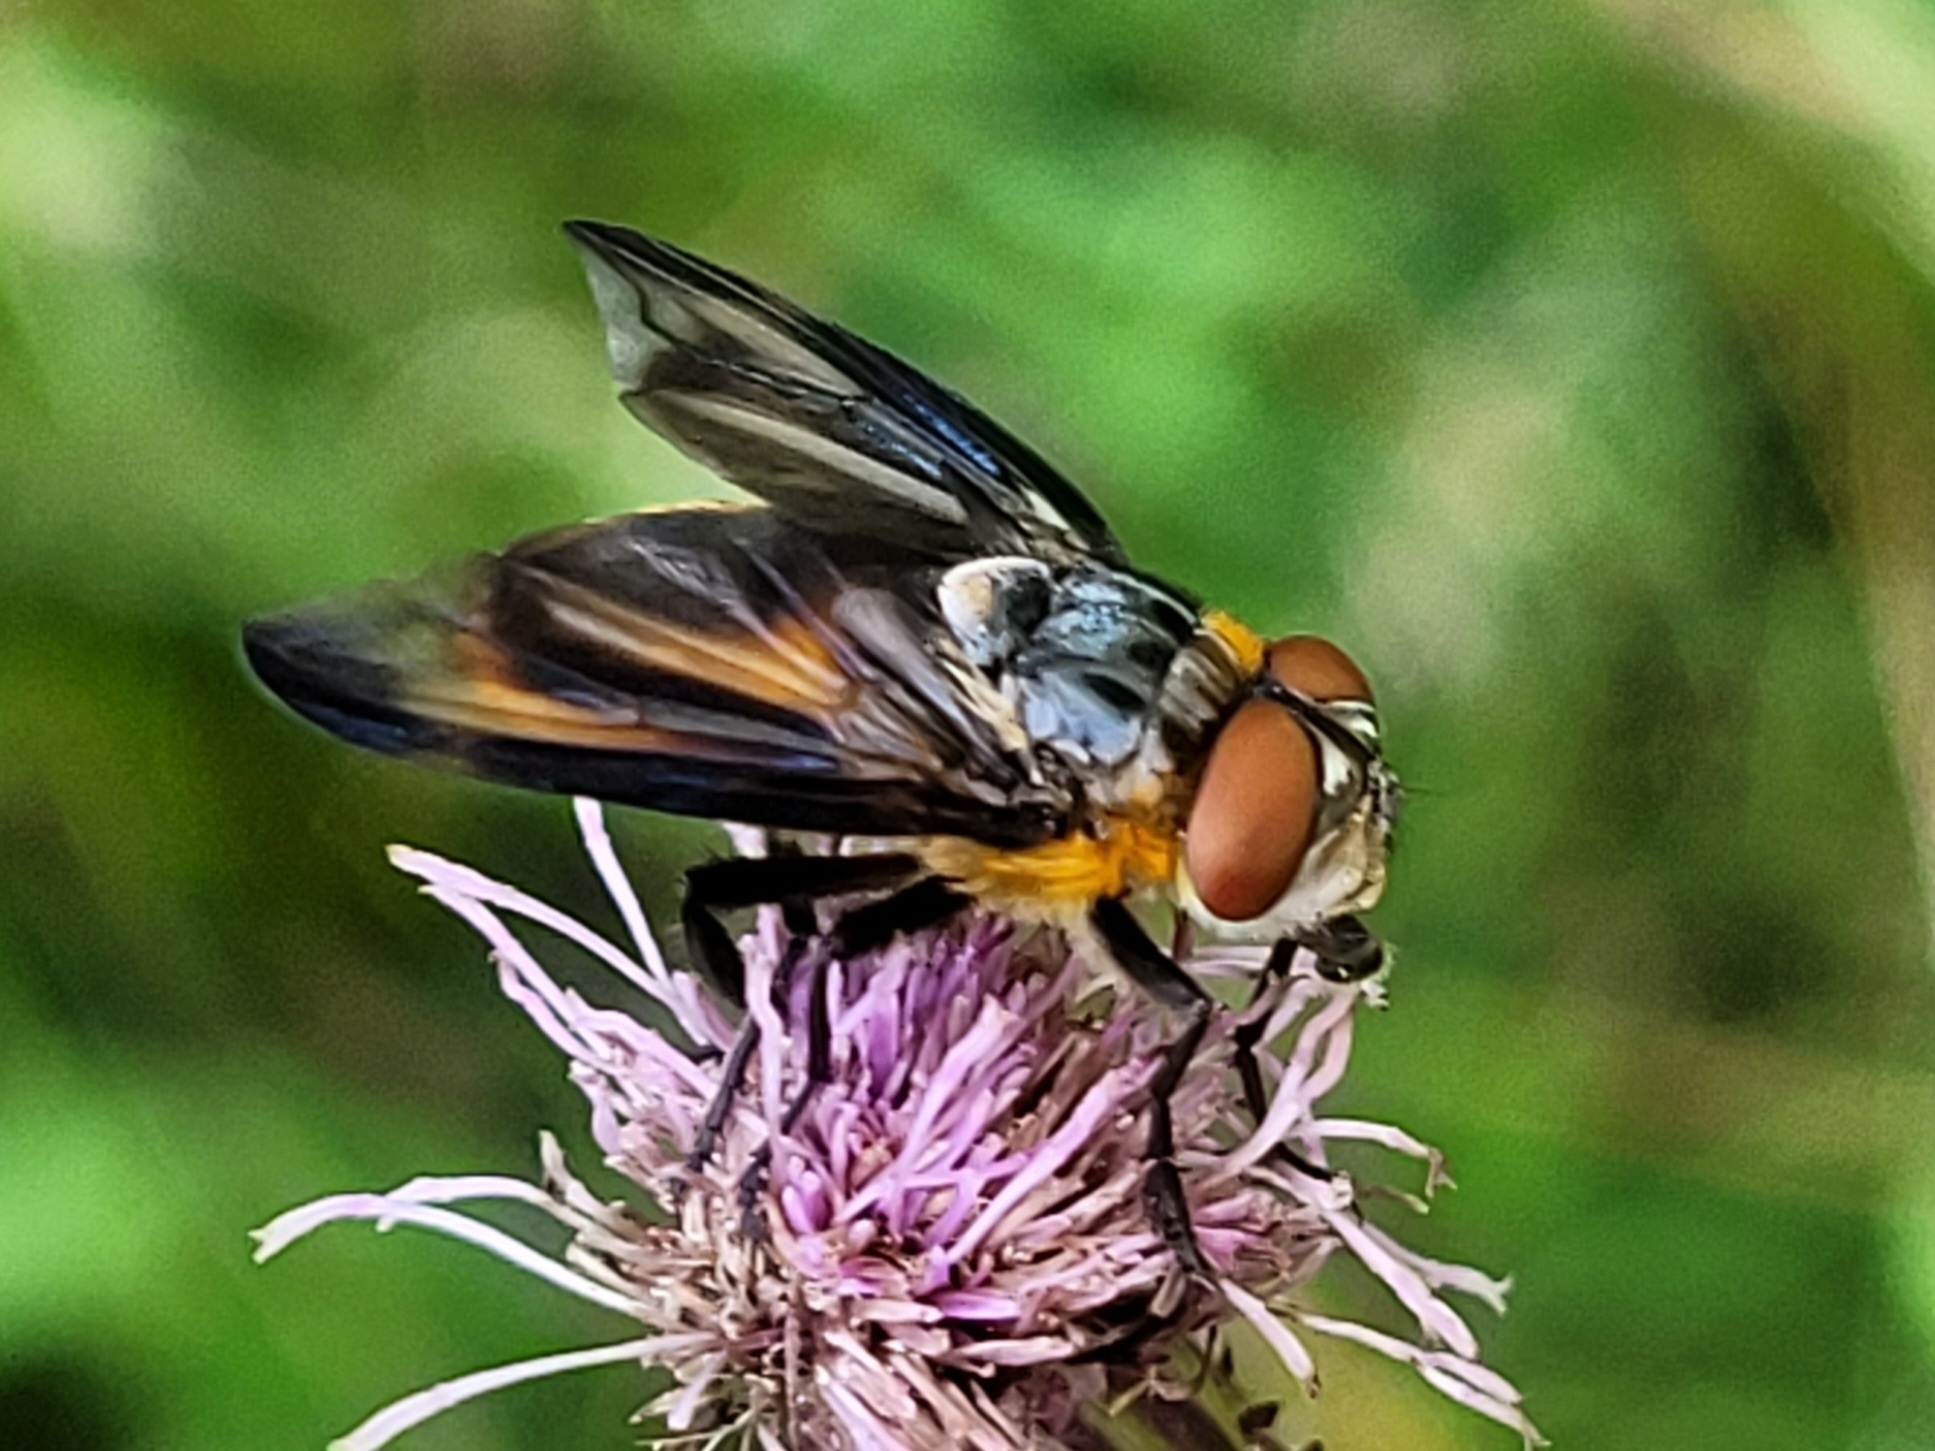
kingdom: Animalia
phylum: Arthropoda
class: Insecta
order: Diptera
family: Tachinidae
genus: Phasia
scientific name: Phasia hemiptera
